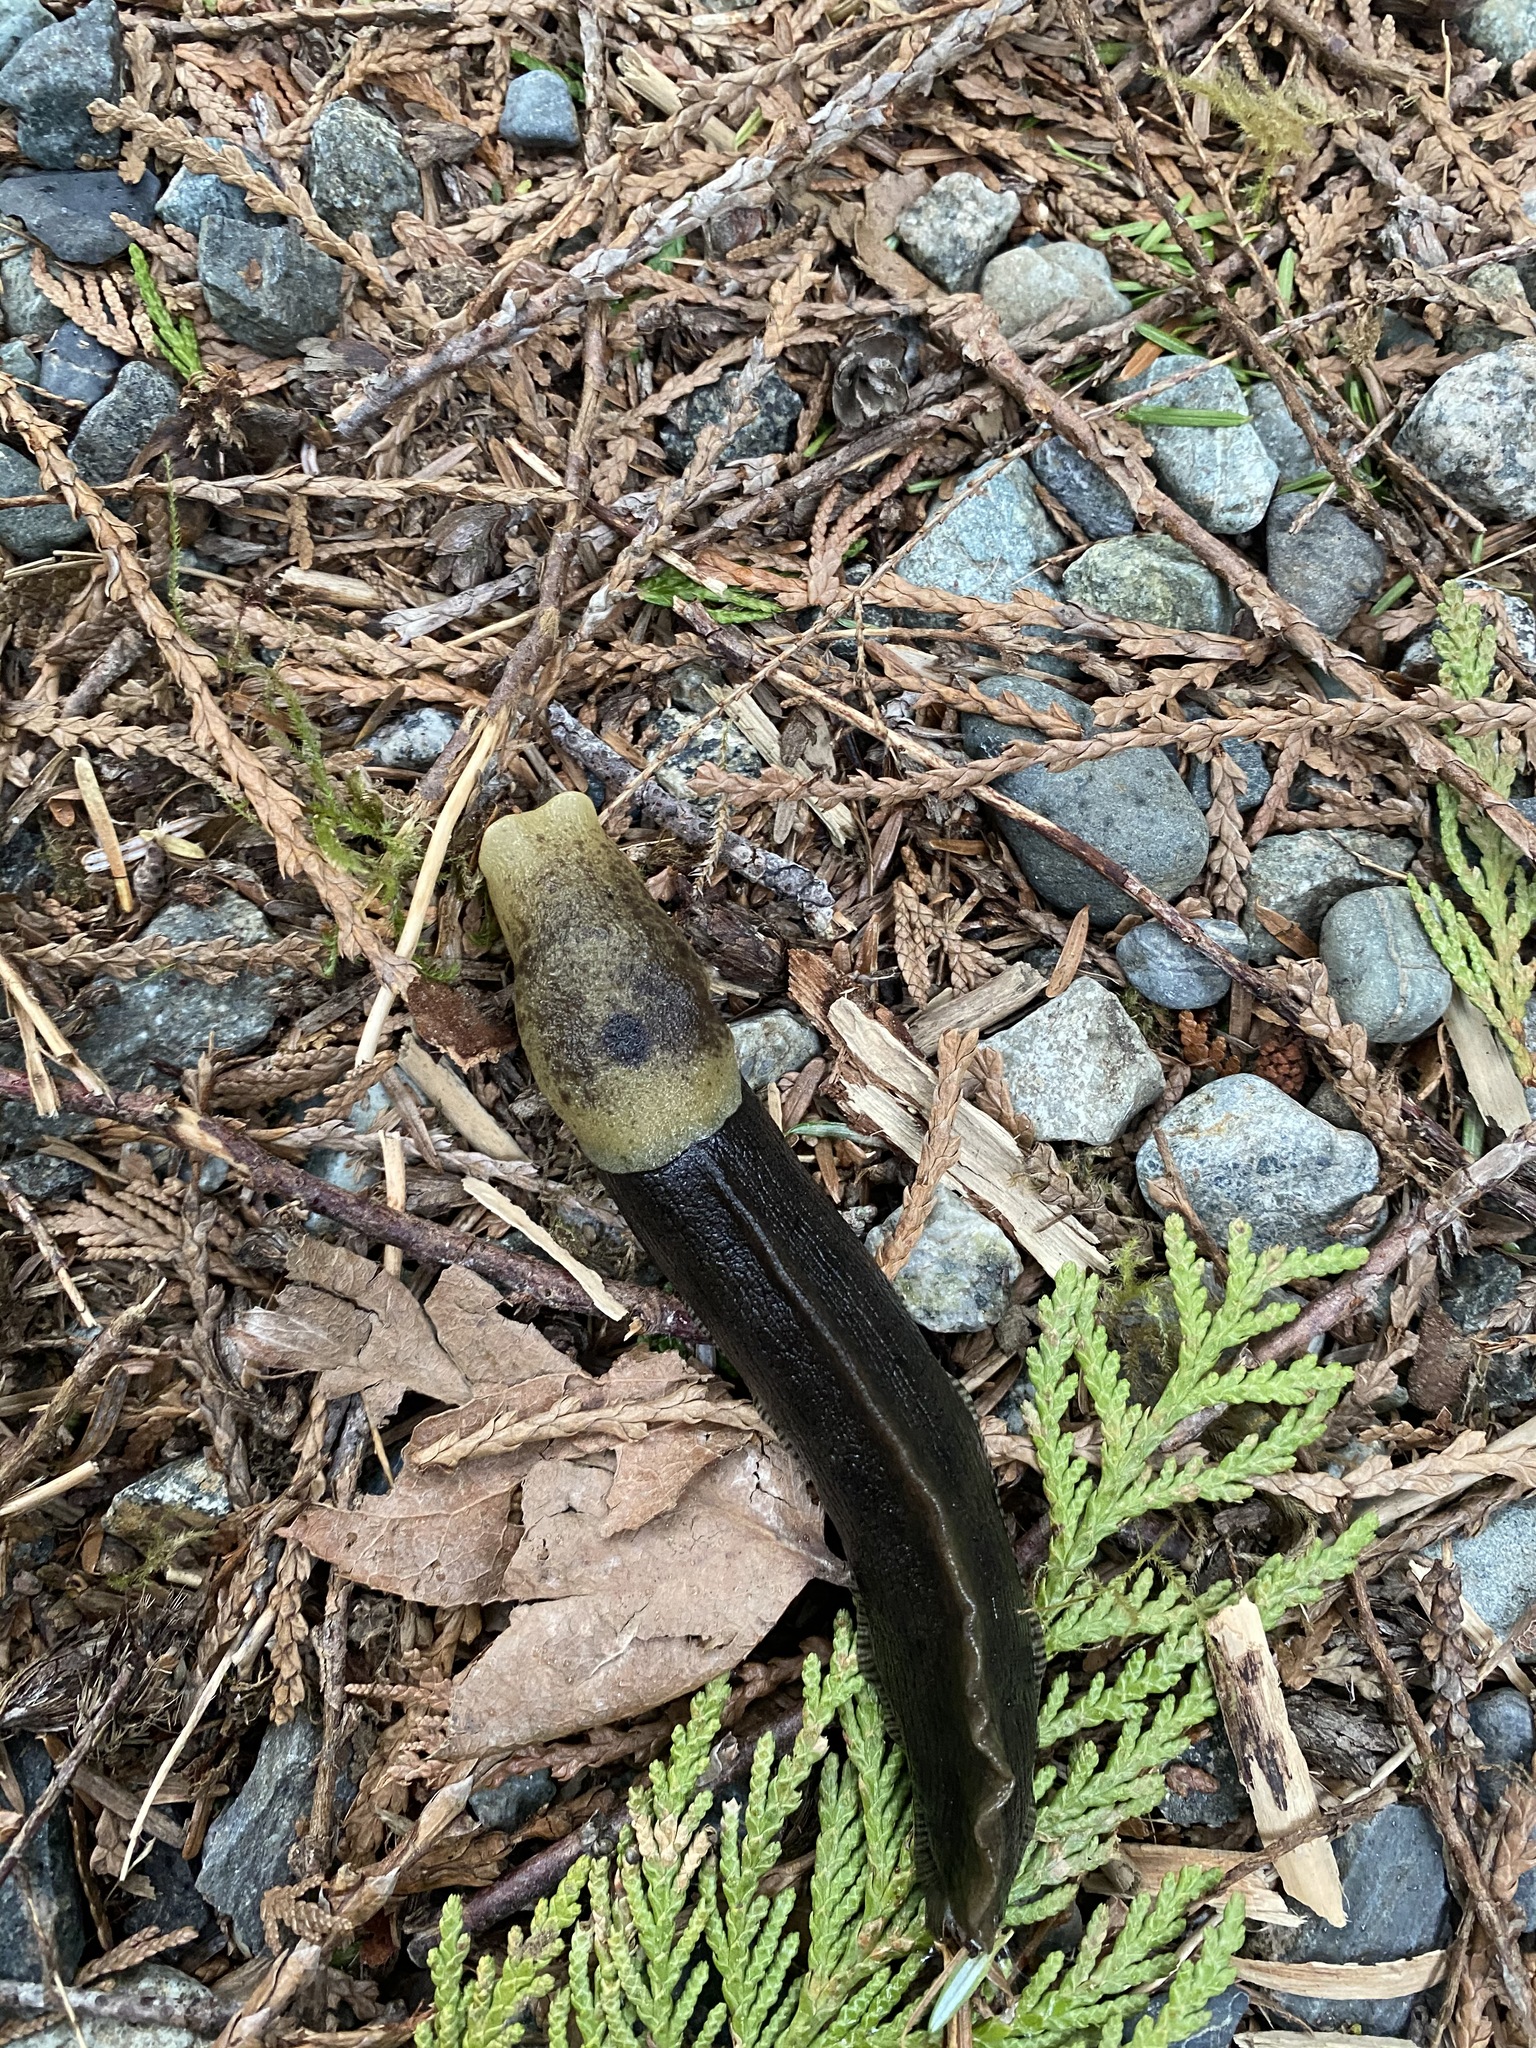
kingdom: Animalia
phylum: Mollusca
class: Gastropoda
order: Stylommatophora
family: Ariolimacidae
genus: Ariolimax
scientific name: Ariolimax columbianus
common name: Pacific banana slug
